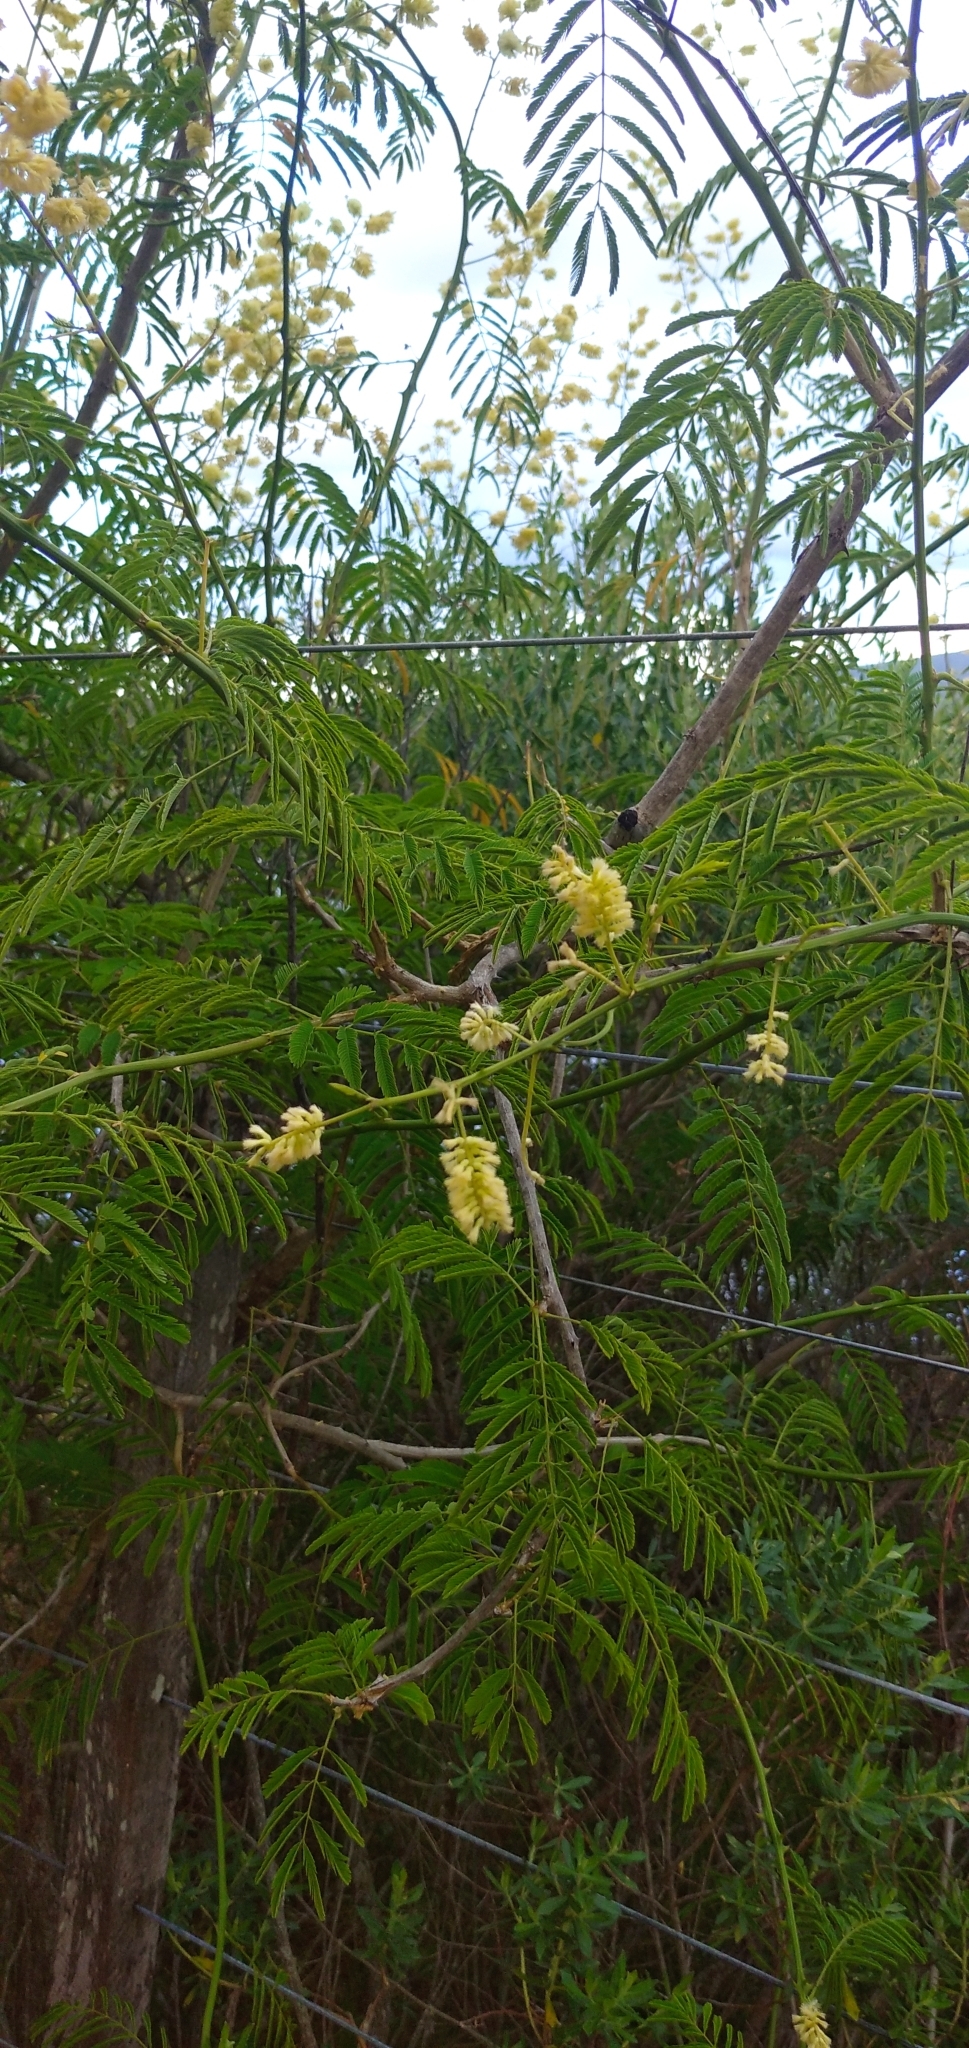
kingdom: Plantae
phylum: Tracheophyta
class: Magnoliopsida
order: Fabales
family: Fabaceae
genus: Senegalia
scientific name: Senegalia bonariensis
